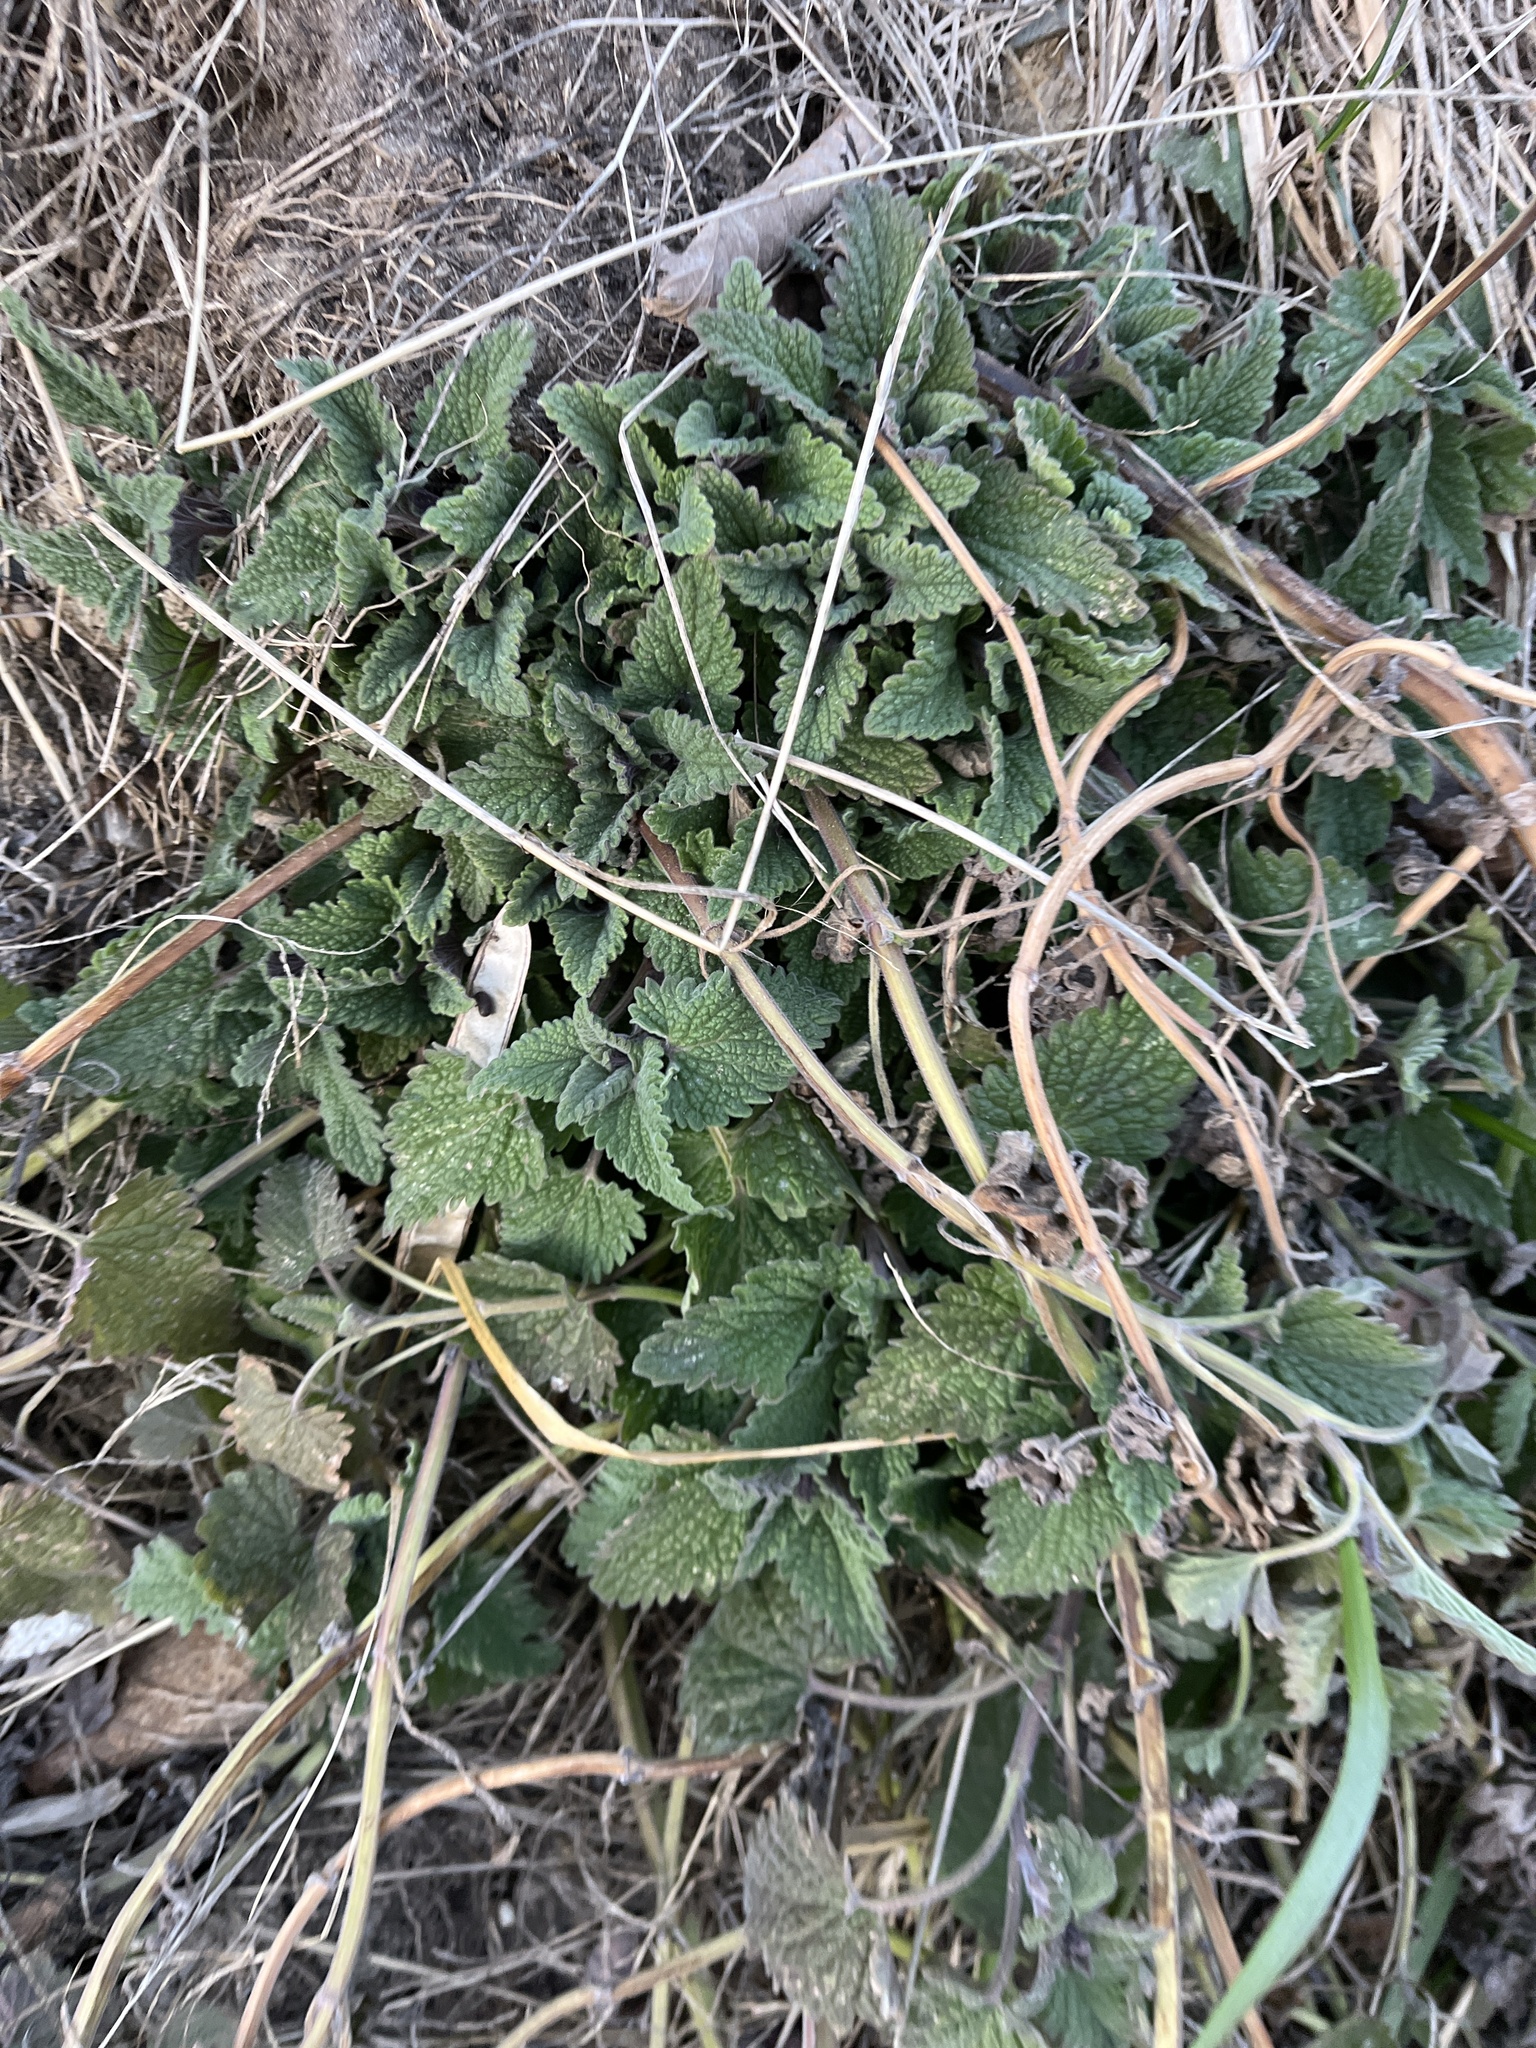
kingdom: Plantae
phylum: Tracheophyta
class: Magnoliopsida
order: Lamiales
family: Lamiaceae
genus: Nepeta
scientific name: Nepeta cataria
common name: Catnip
